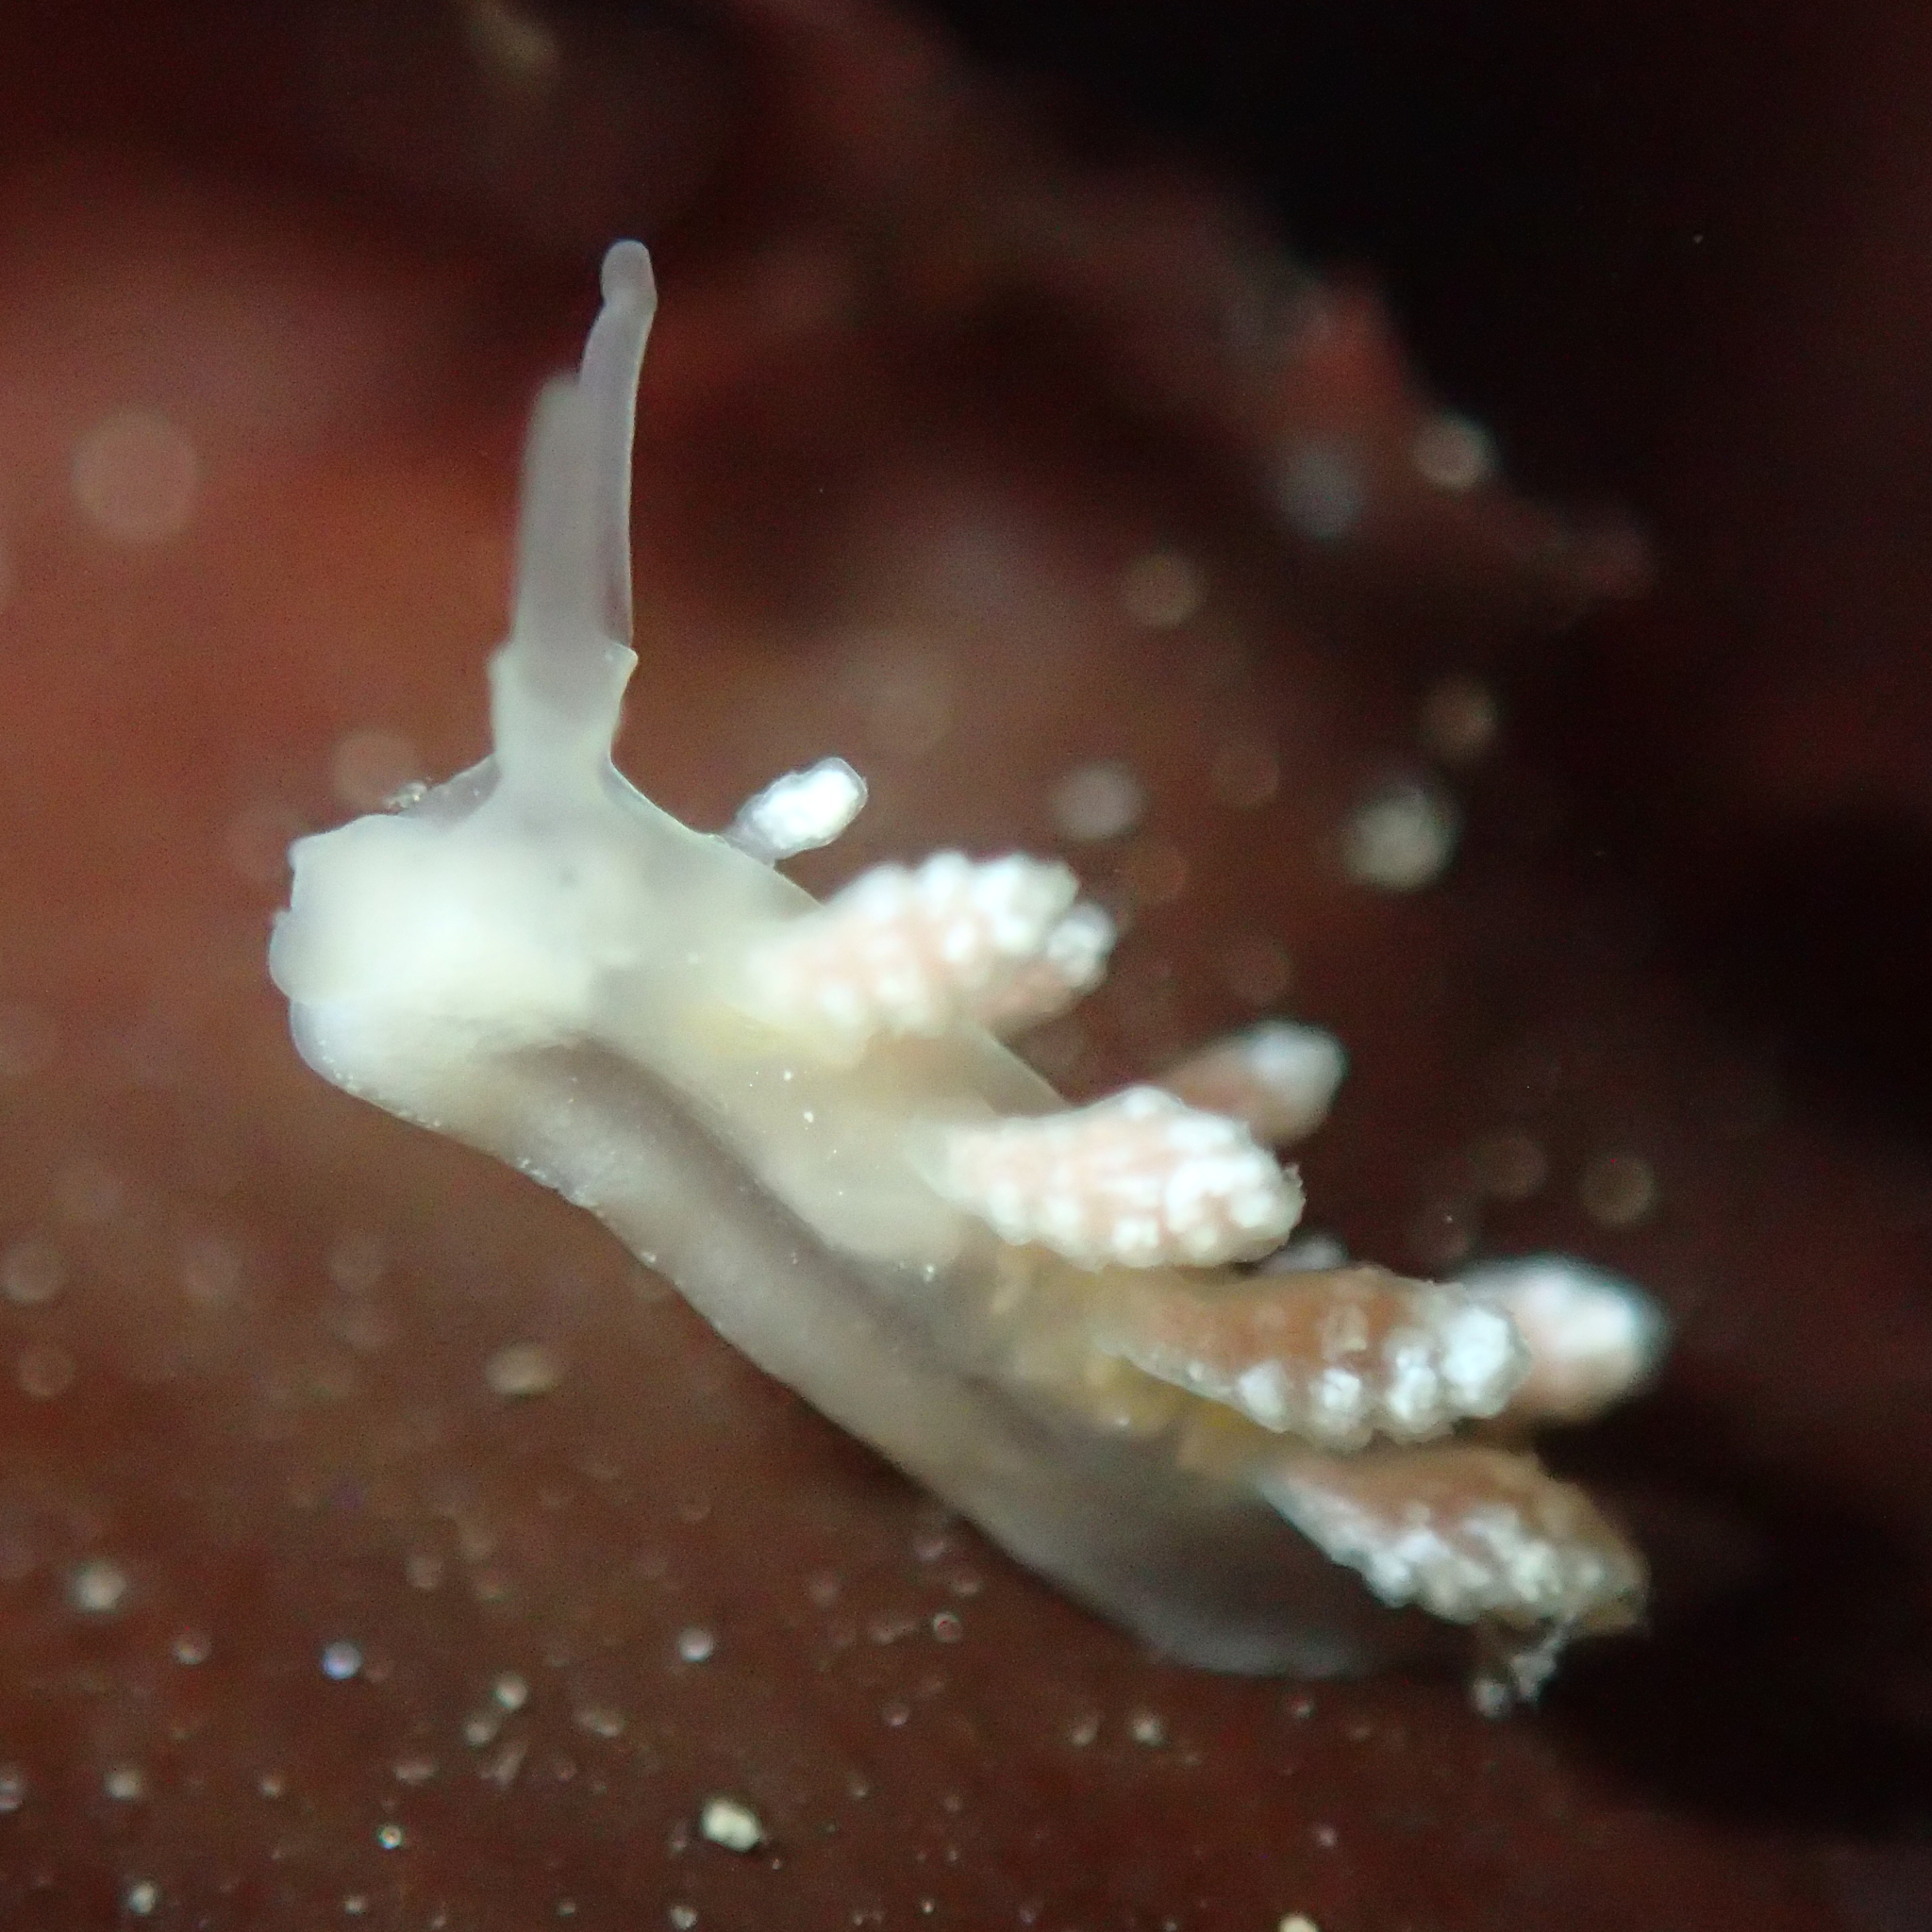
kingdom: Animalia
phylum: Mollusca
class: Gastropoda
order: Nudibranchia
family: Dotidae
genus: Doto
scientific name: Doto amyra
